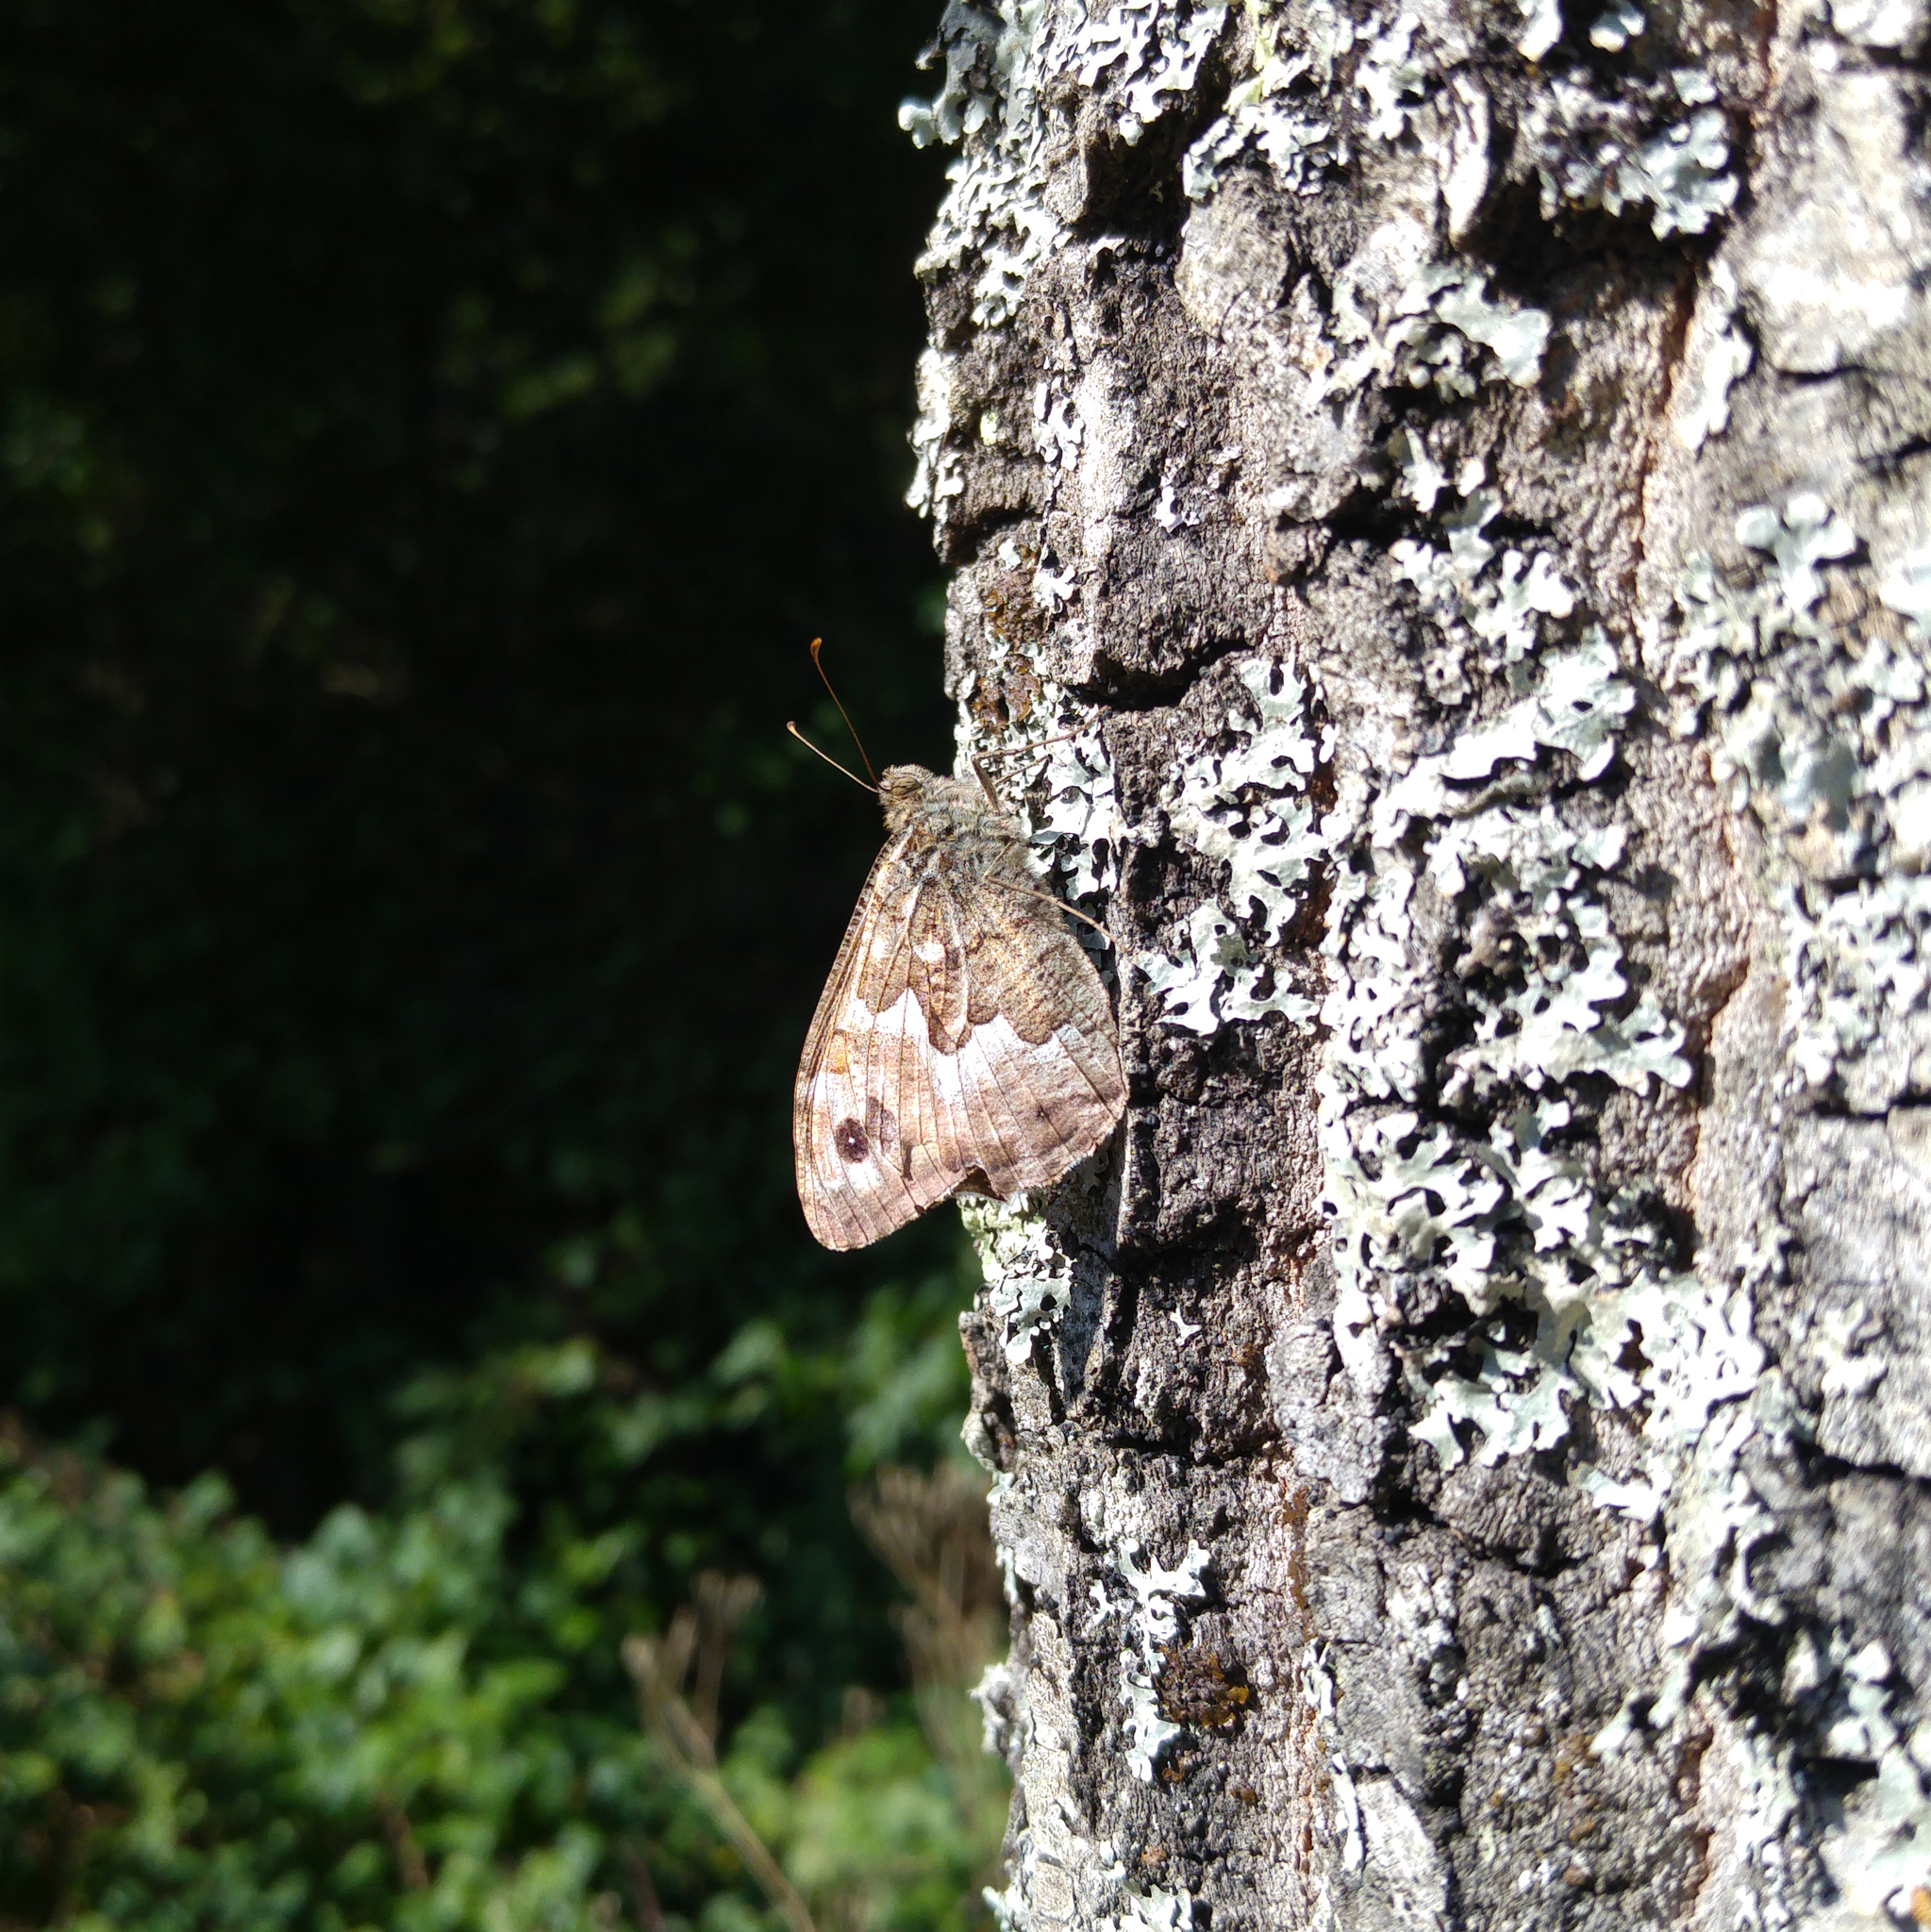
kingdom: Animalia
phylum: Arthropoda
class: Insecta
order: Lepidoptera
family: Nymphalidae
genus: Hipparchia
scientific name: Hipparchia semele
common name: Grayling
